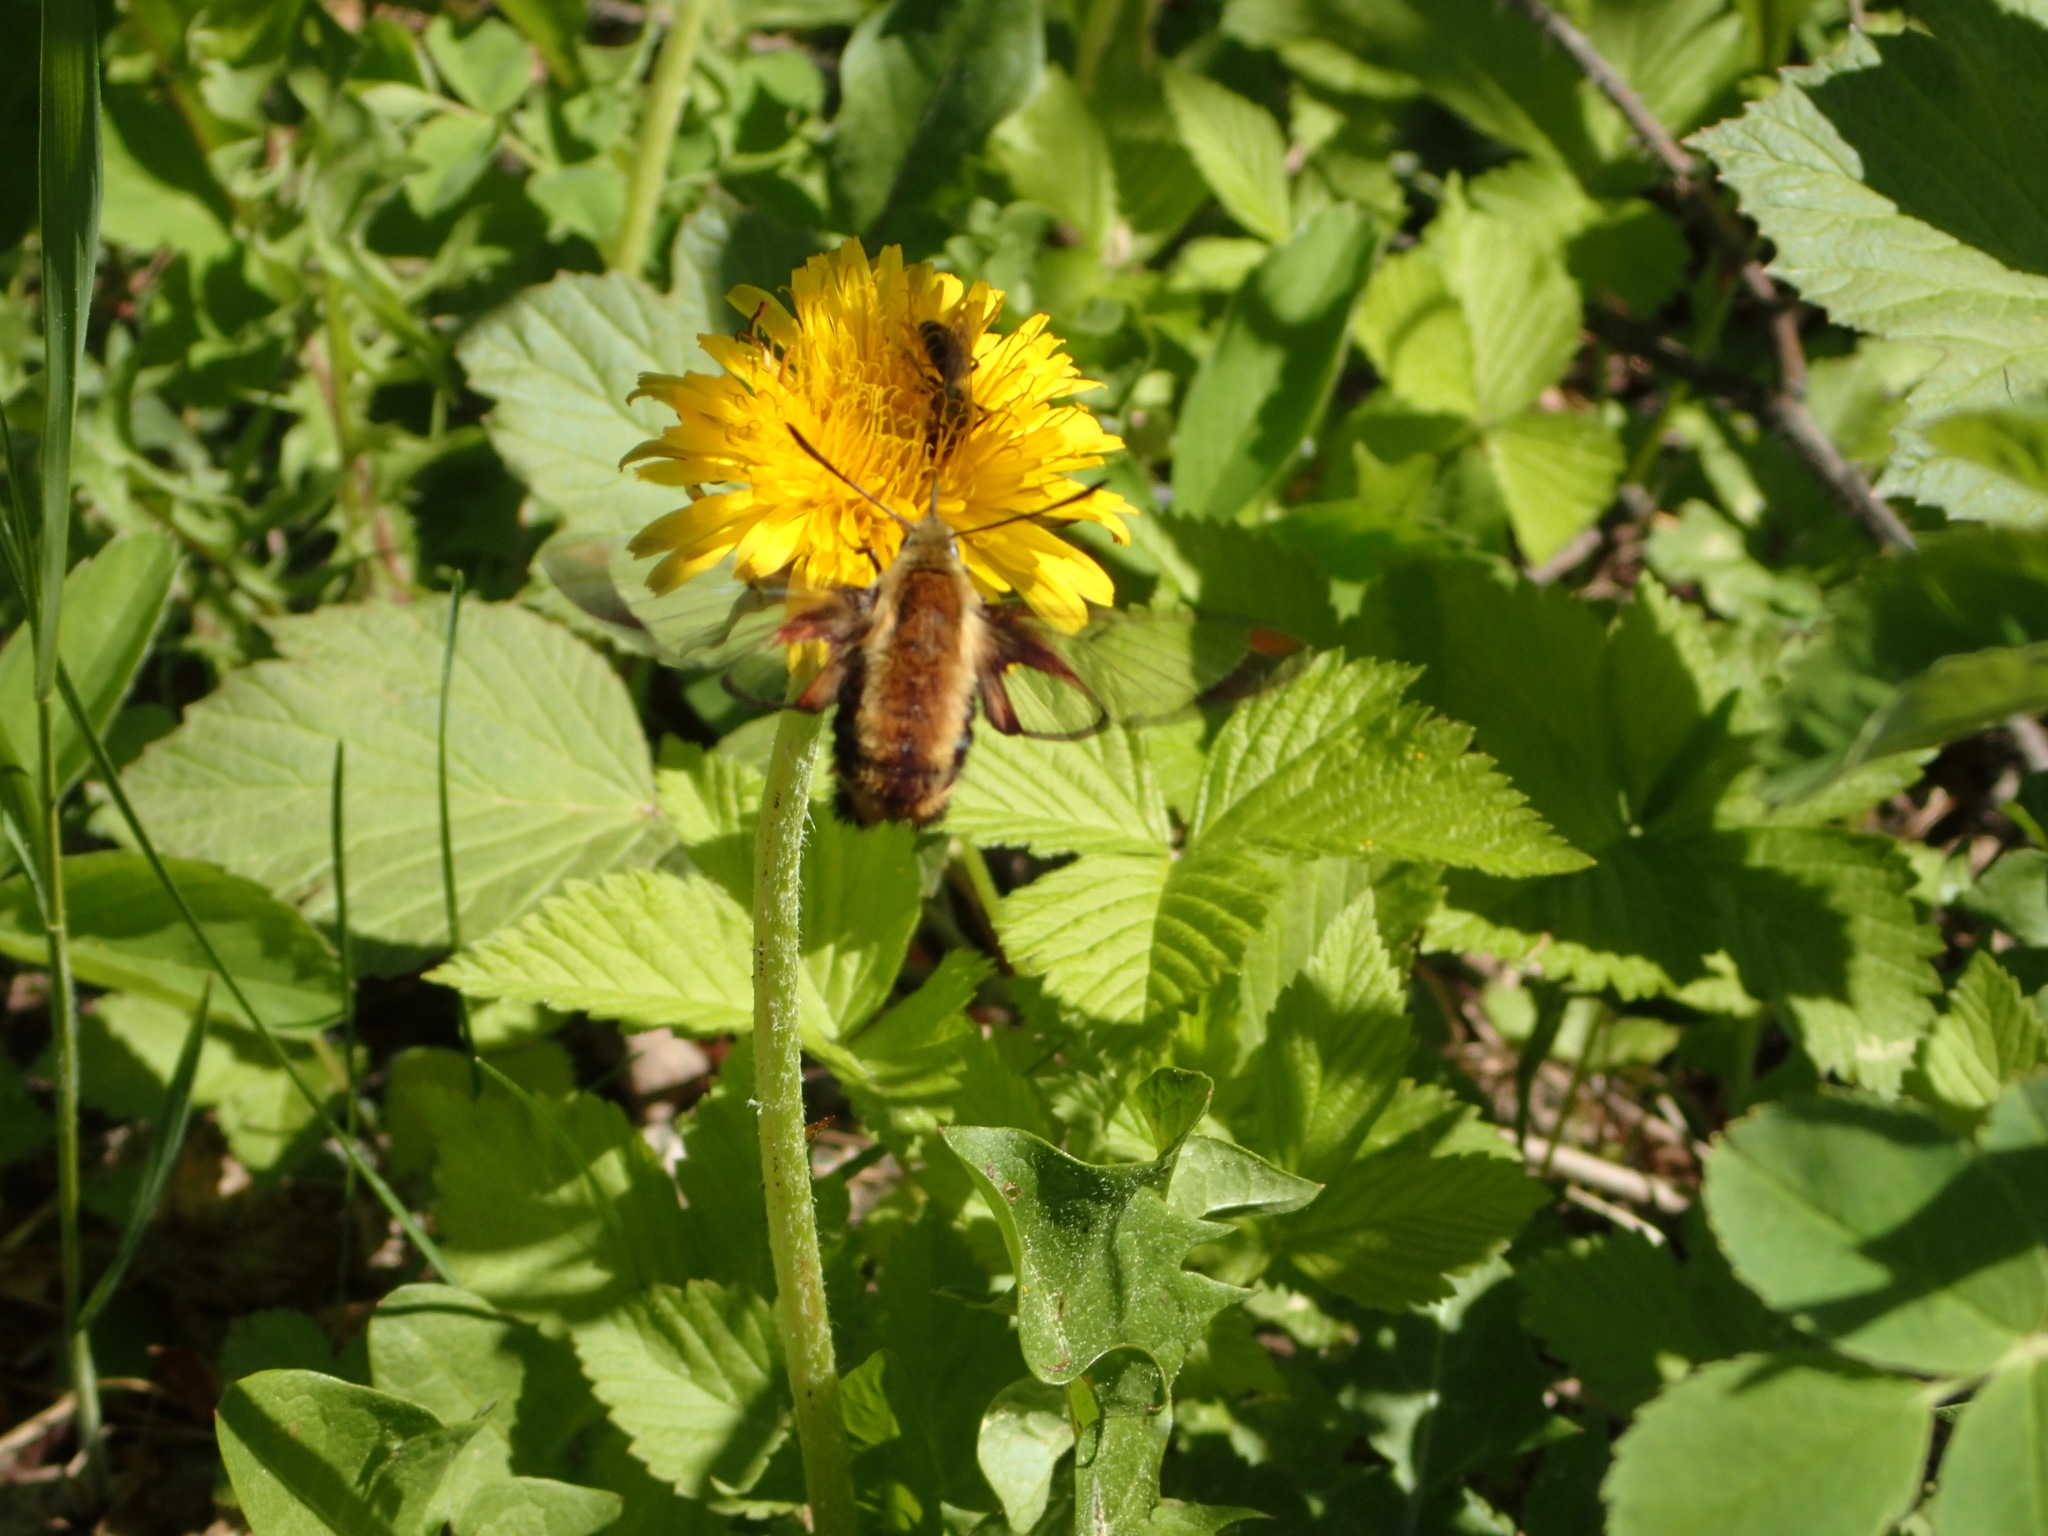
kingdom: Animalia
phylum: Arthropoda
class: Insecta
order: Lepidoptera
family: Sphingidae
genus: Hemaris
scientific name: Hemaris diffinis
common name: Bumblebee moth
